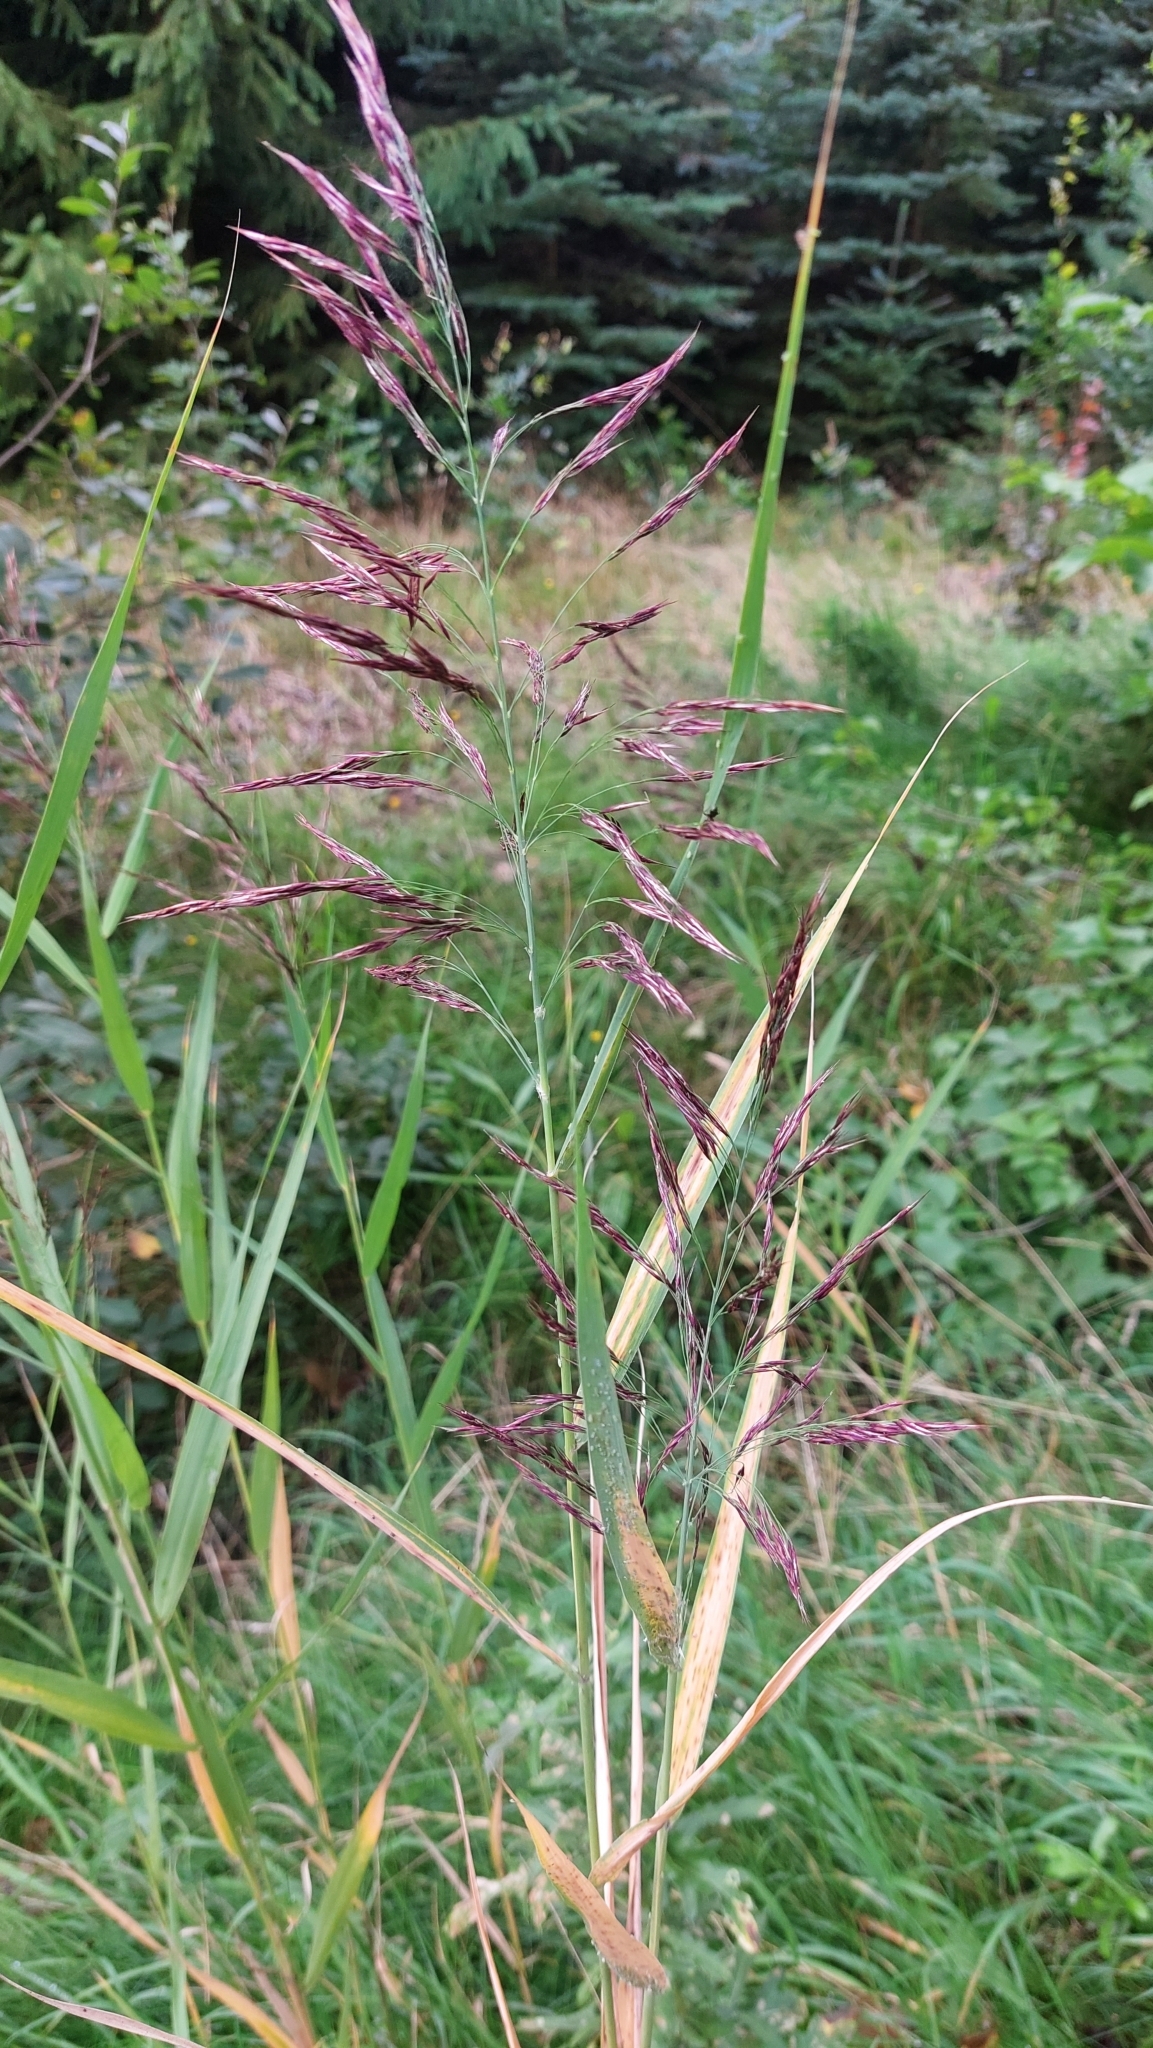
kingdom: Plantae
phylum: Tracheophyta
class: Liliopsida
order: Poales
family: Poaceae
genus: Phragmites
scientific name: Phragmites australis
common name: Common reed
